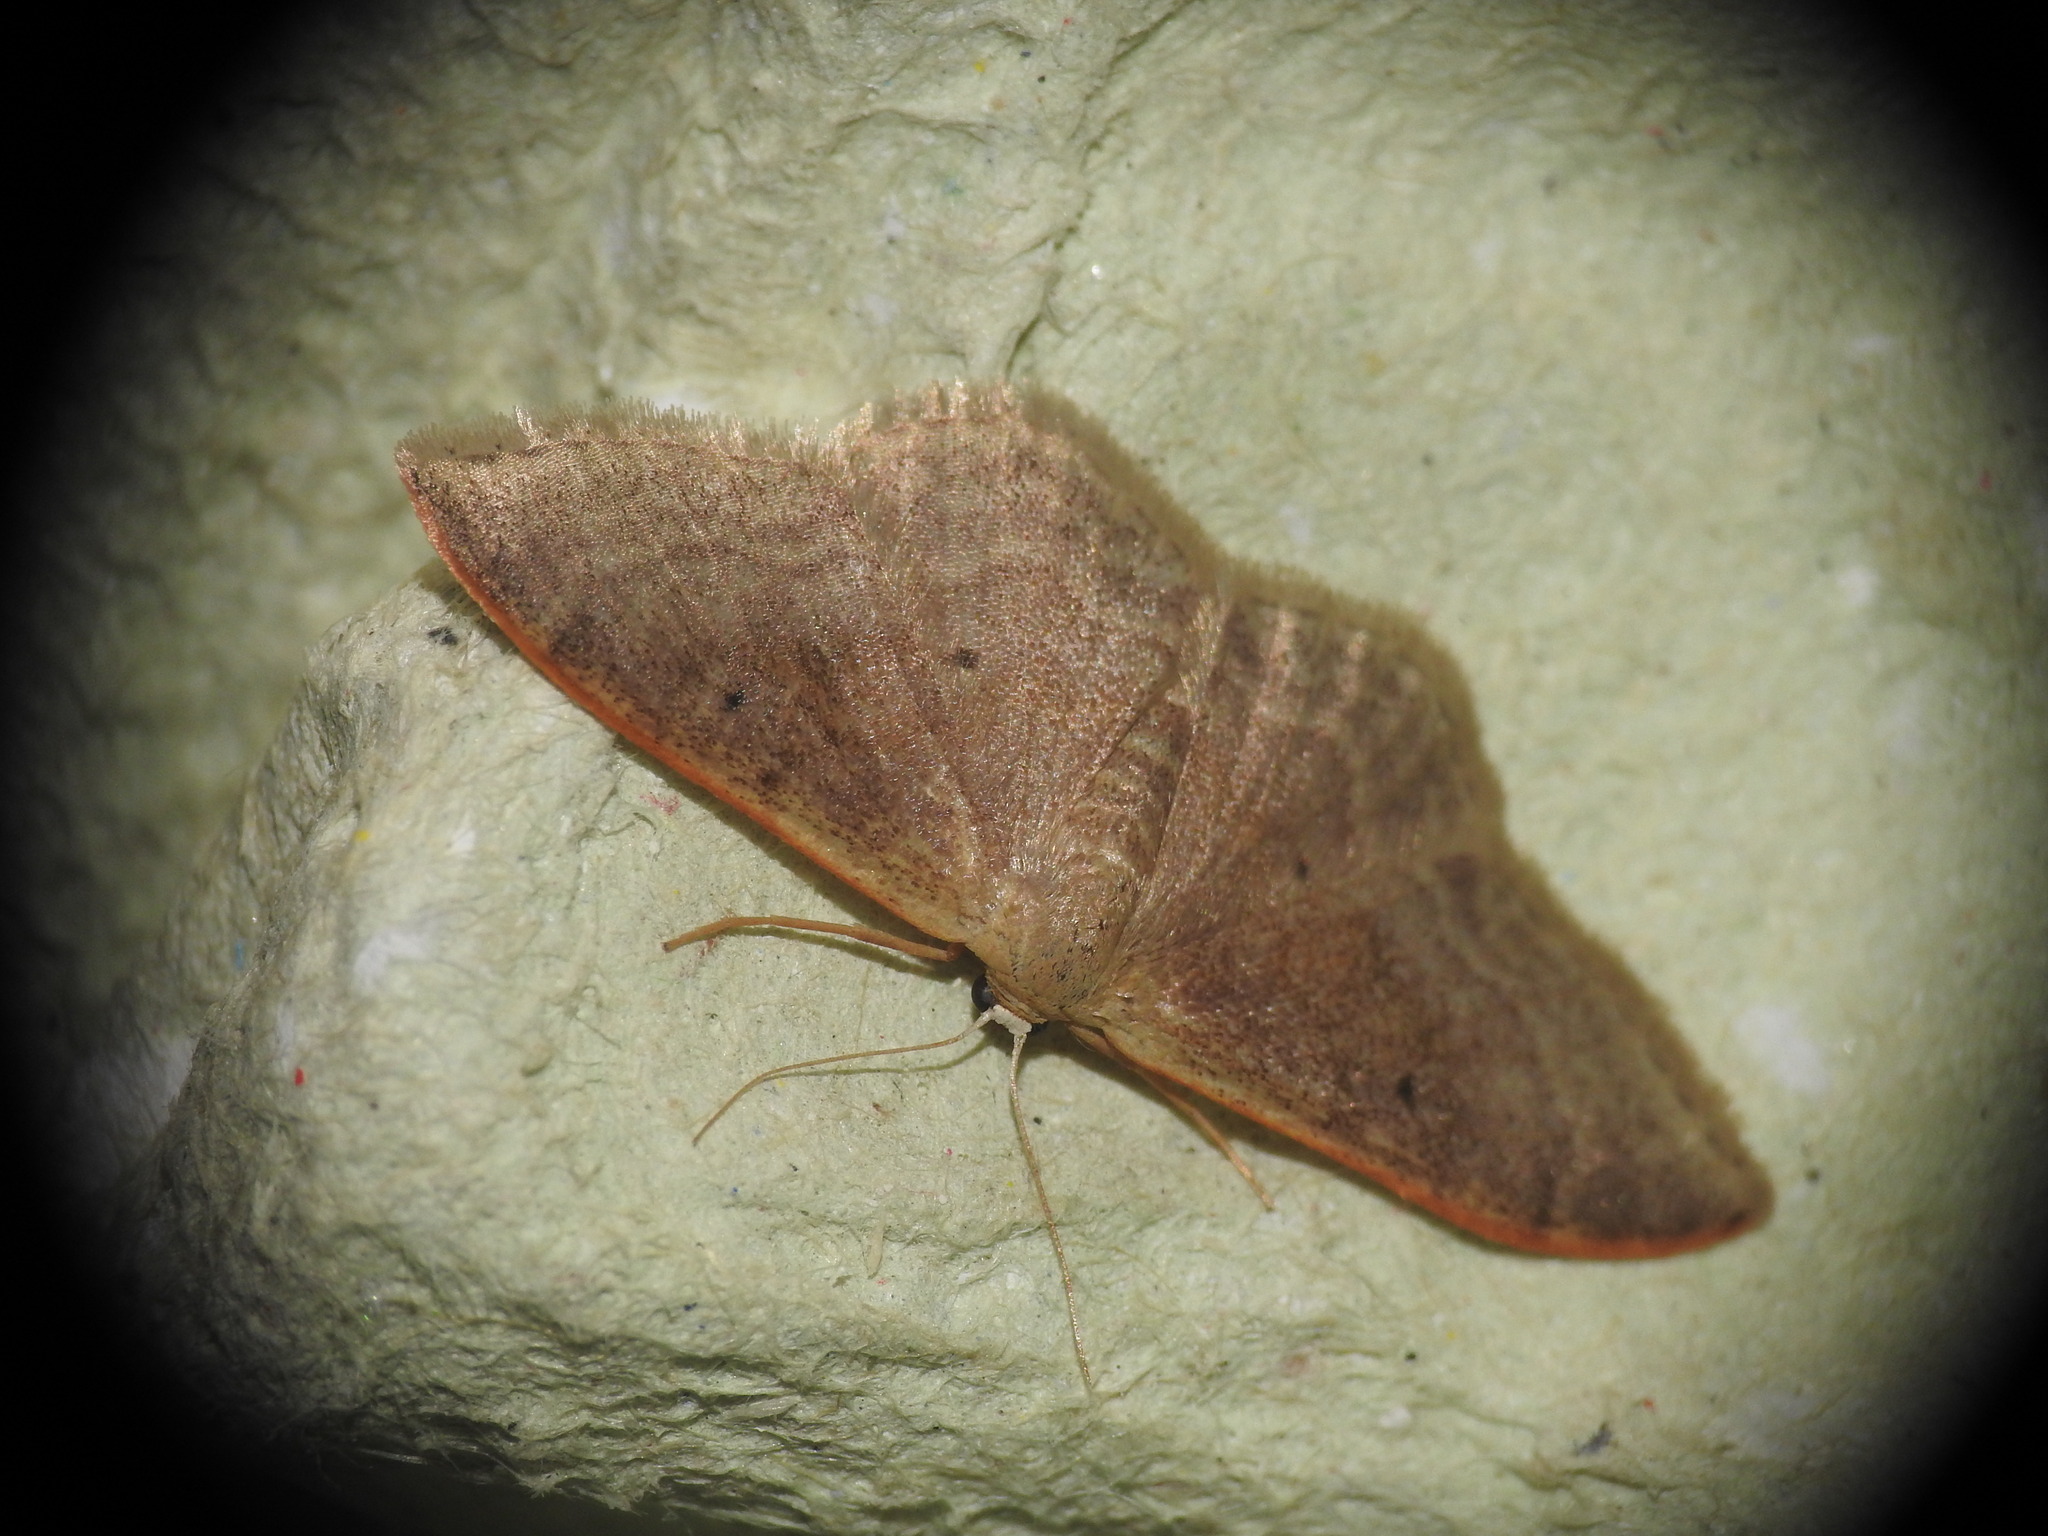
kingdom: Animalia
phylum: Arthropoda
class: Insecta
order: Lepidoptera
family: Geometridae
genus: Idaea
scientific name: Idaea degeneraria
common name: Portland ribbon wave
